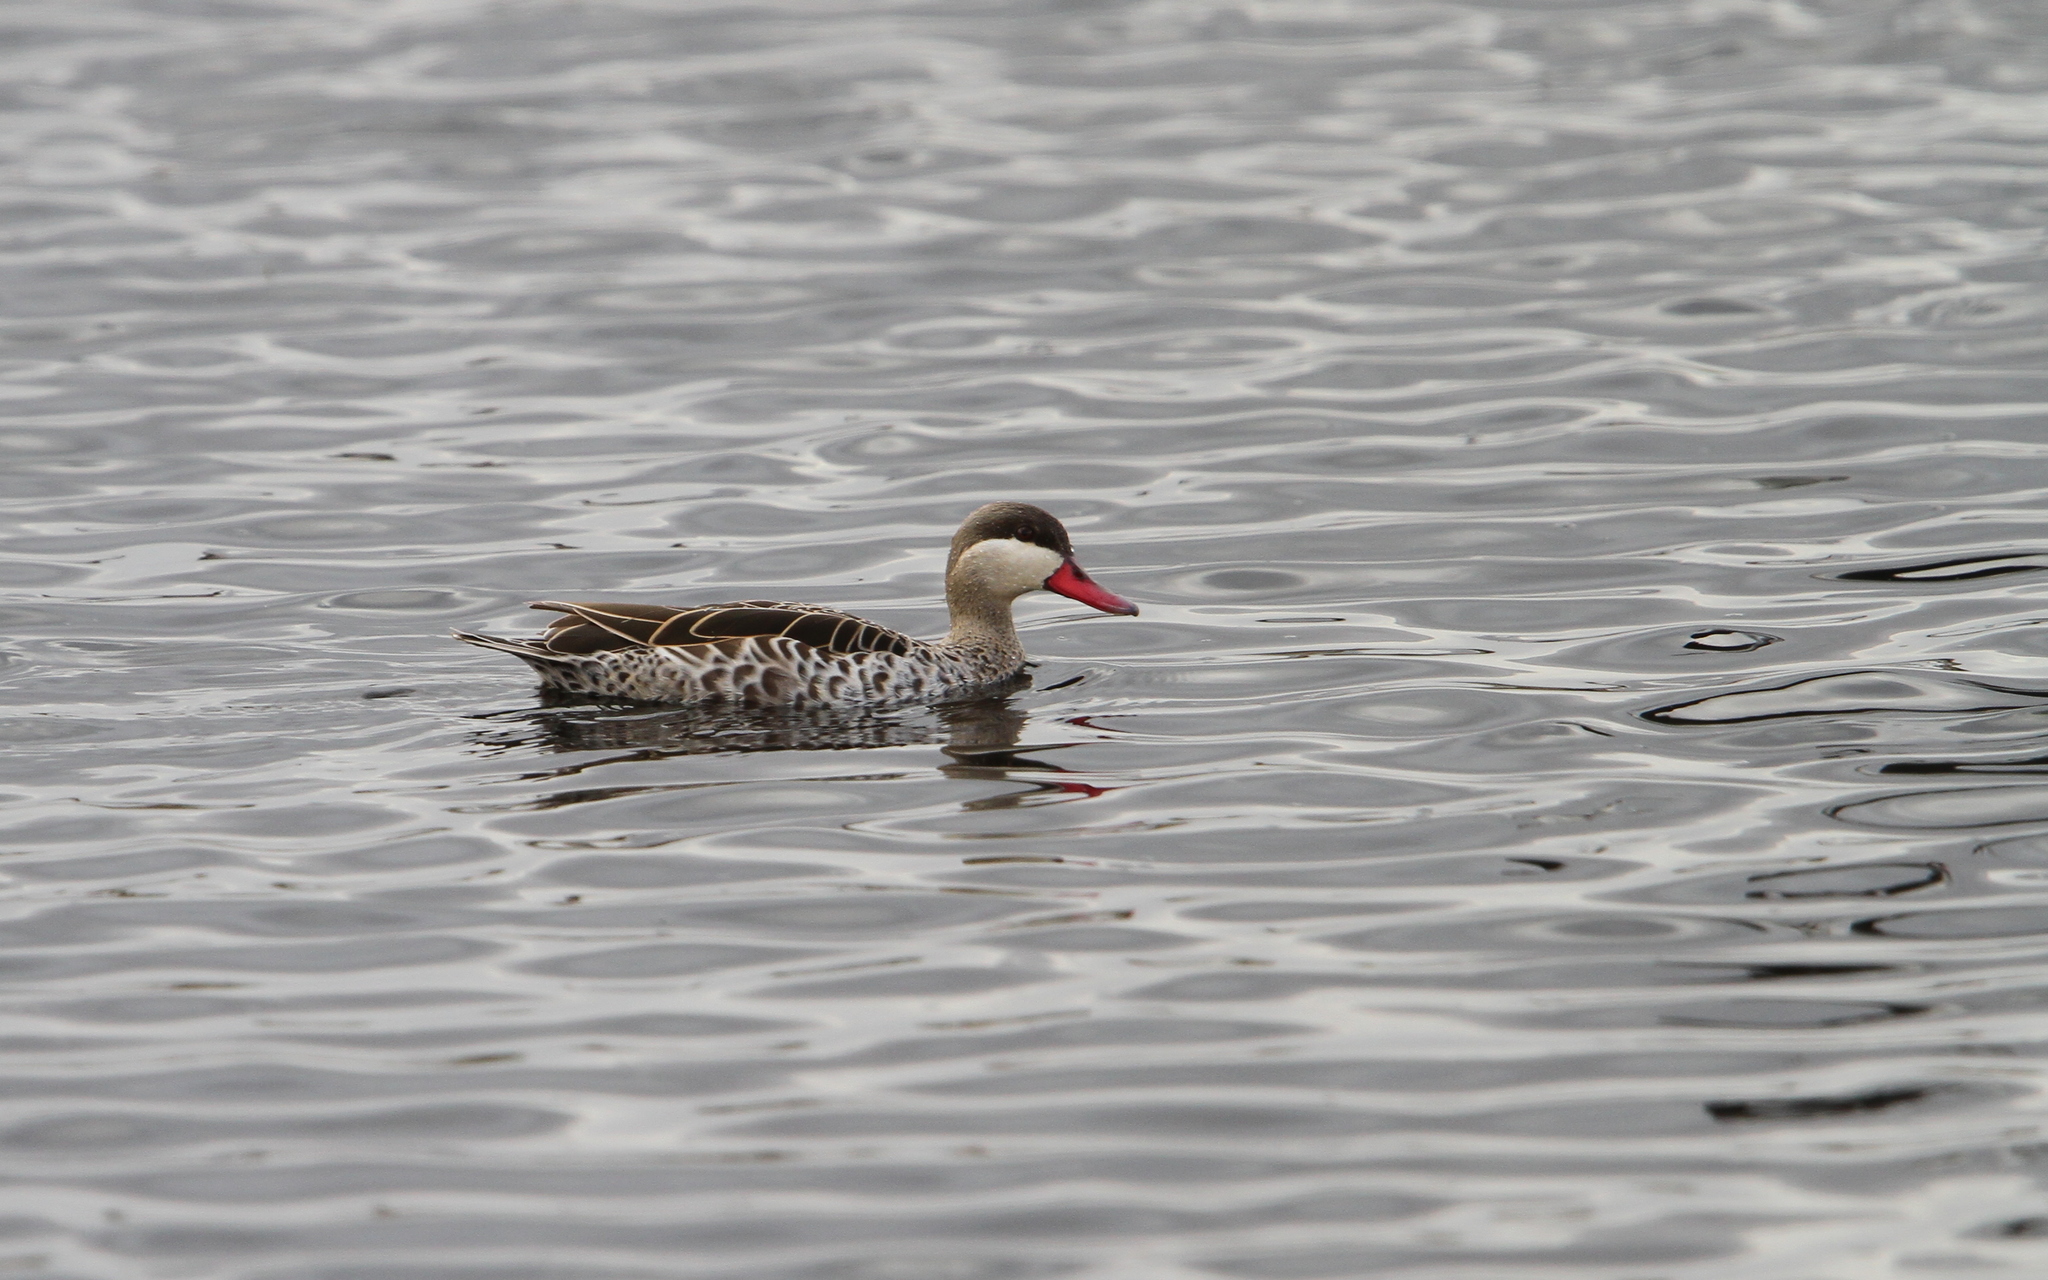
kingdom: Animalia
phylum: Chordata
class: Aves
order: Anseriformes
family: Anatidae
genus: Anas
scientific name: Anas erythrorhyncha
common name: Red-billed teal
